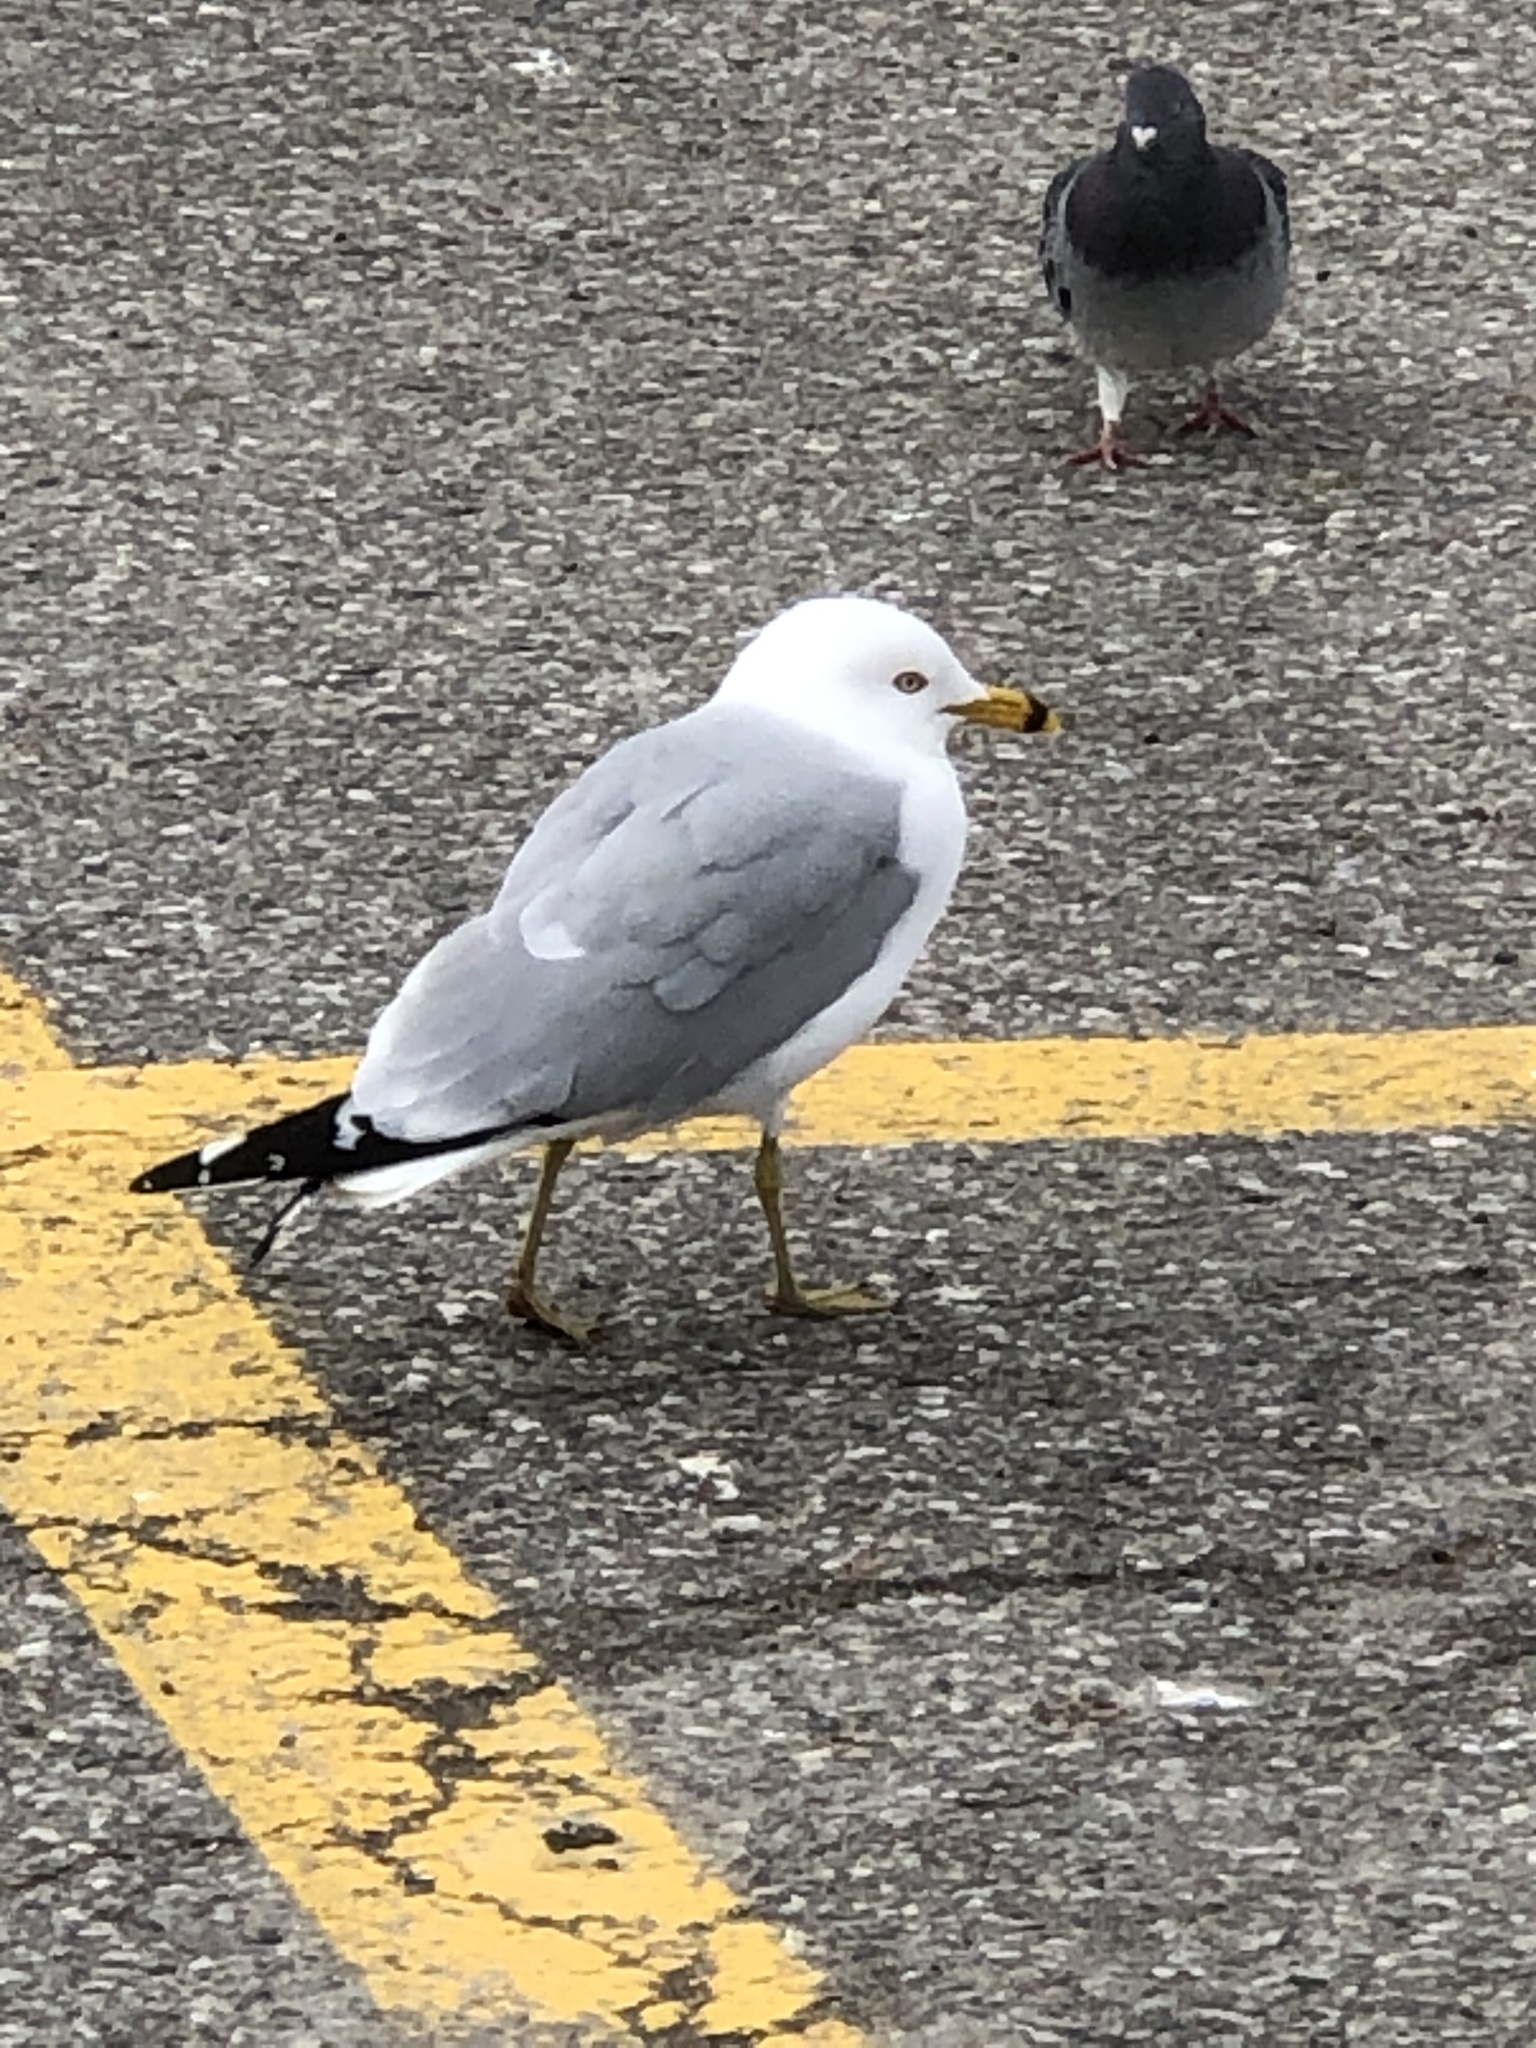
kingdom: Animalia
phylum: Chordata
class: Aves
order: Charadriiformes
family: Laridae
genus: Larus
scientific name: Larus delawarensis
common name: Ring-billed gull
